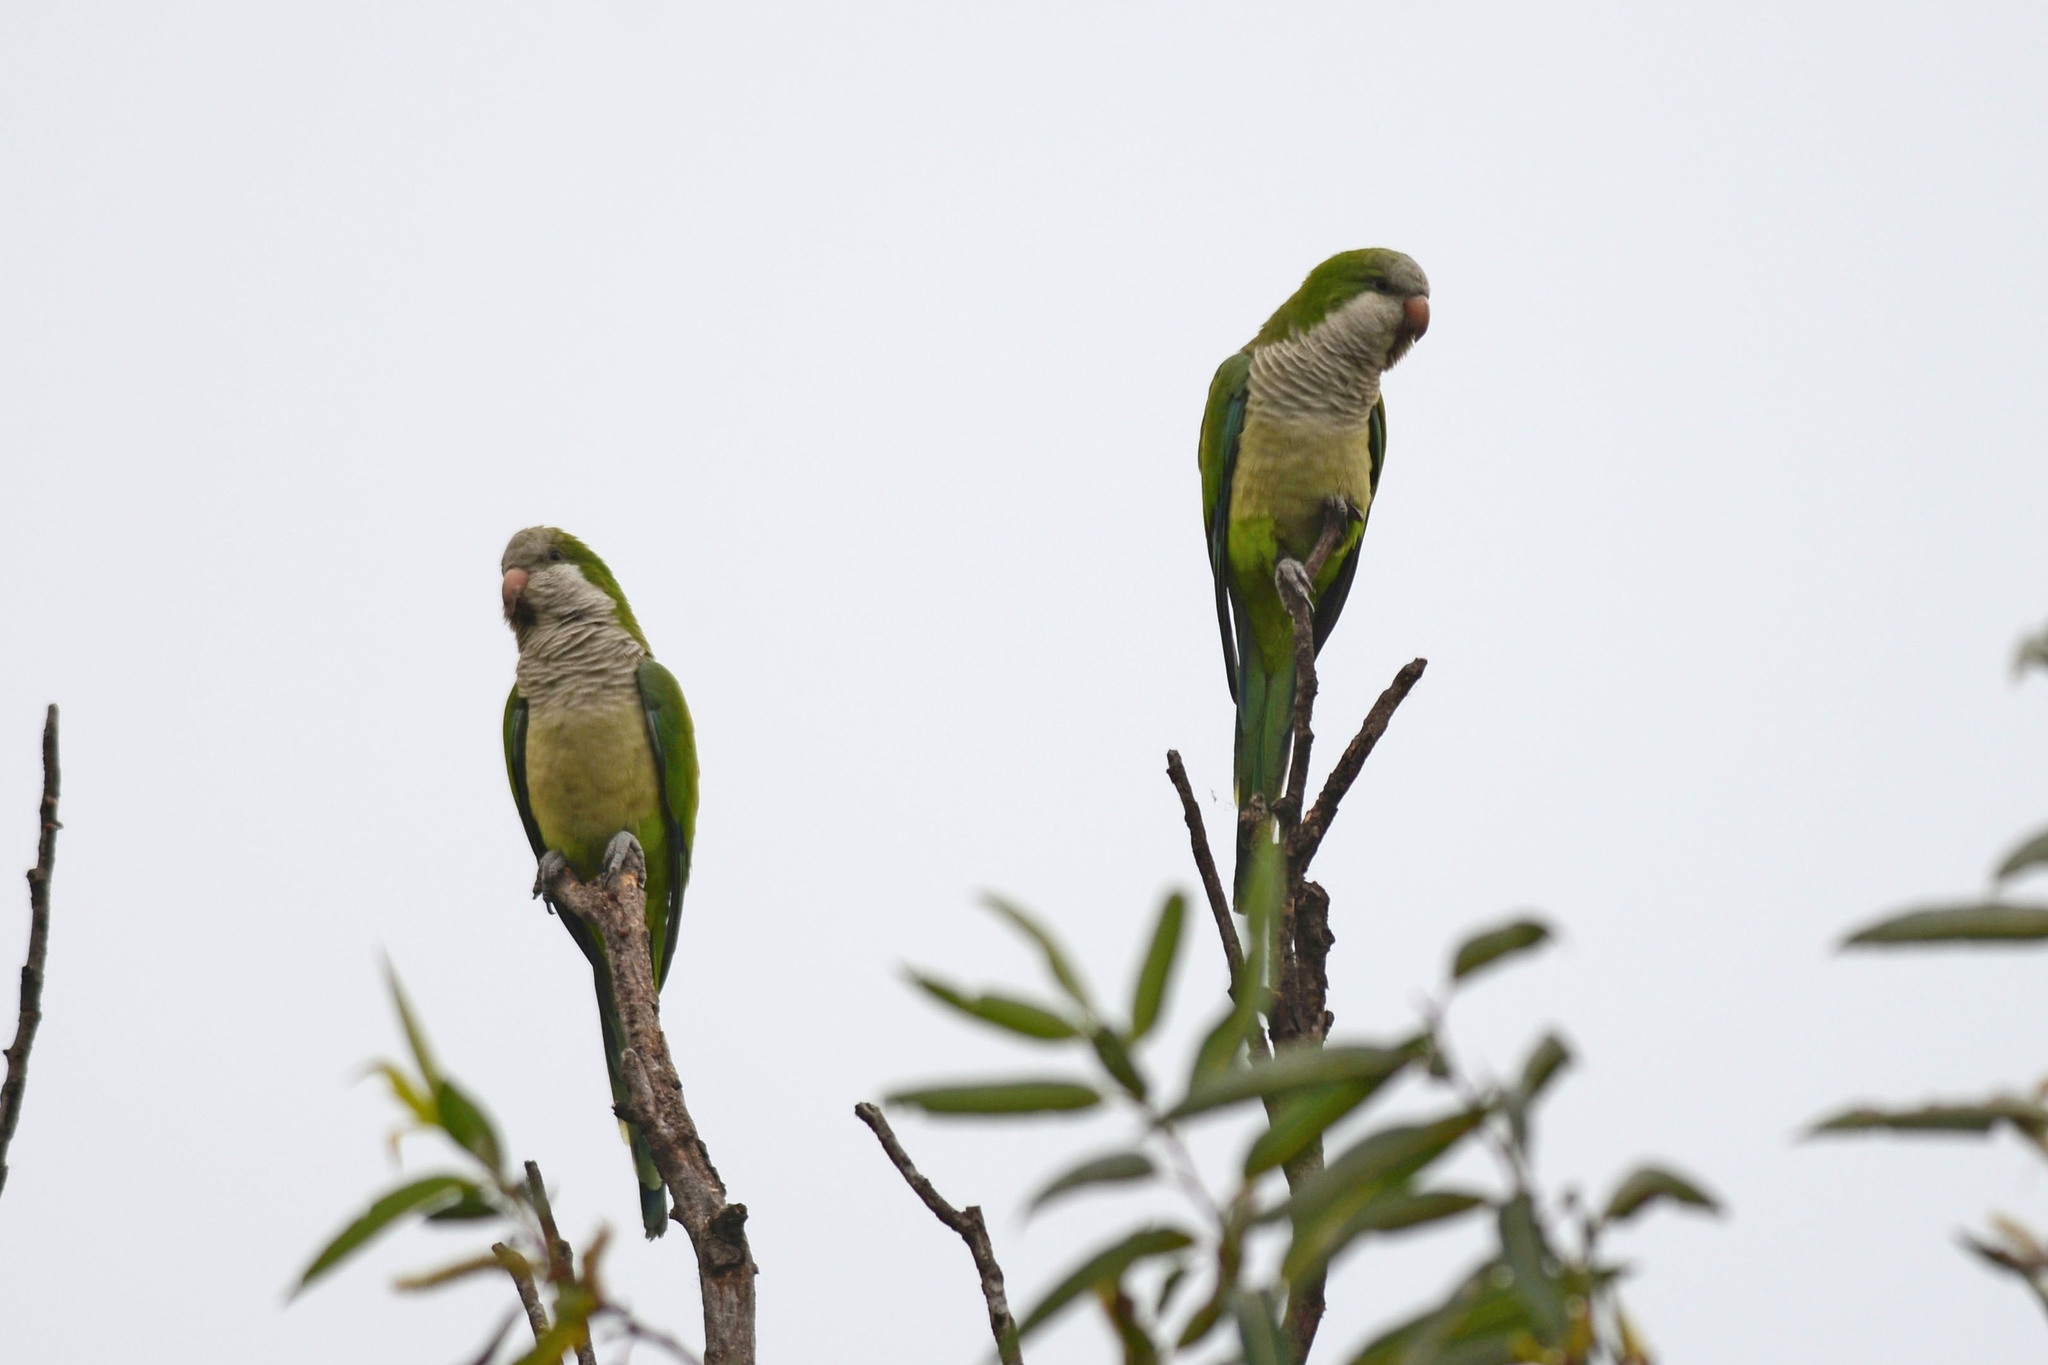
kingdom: Animalia
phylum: Chordata
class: Aves
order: Psittaciformes
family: Psittacidae
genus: Myiopsitta
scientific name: Myiopsitta monachus
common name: Monk parakeet
